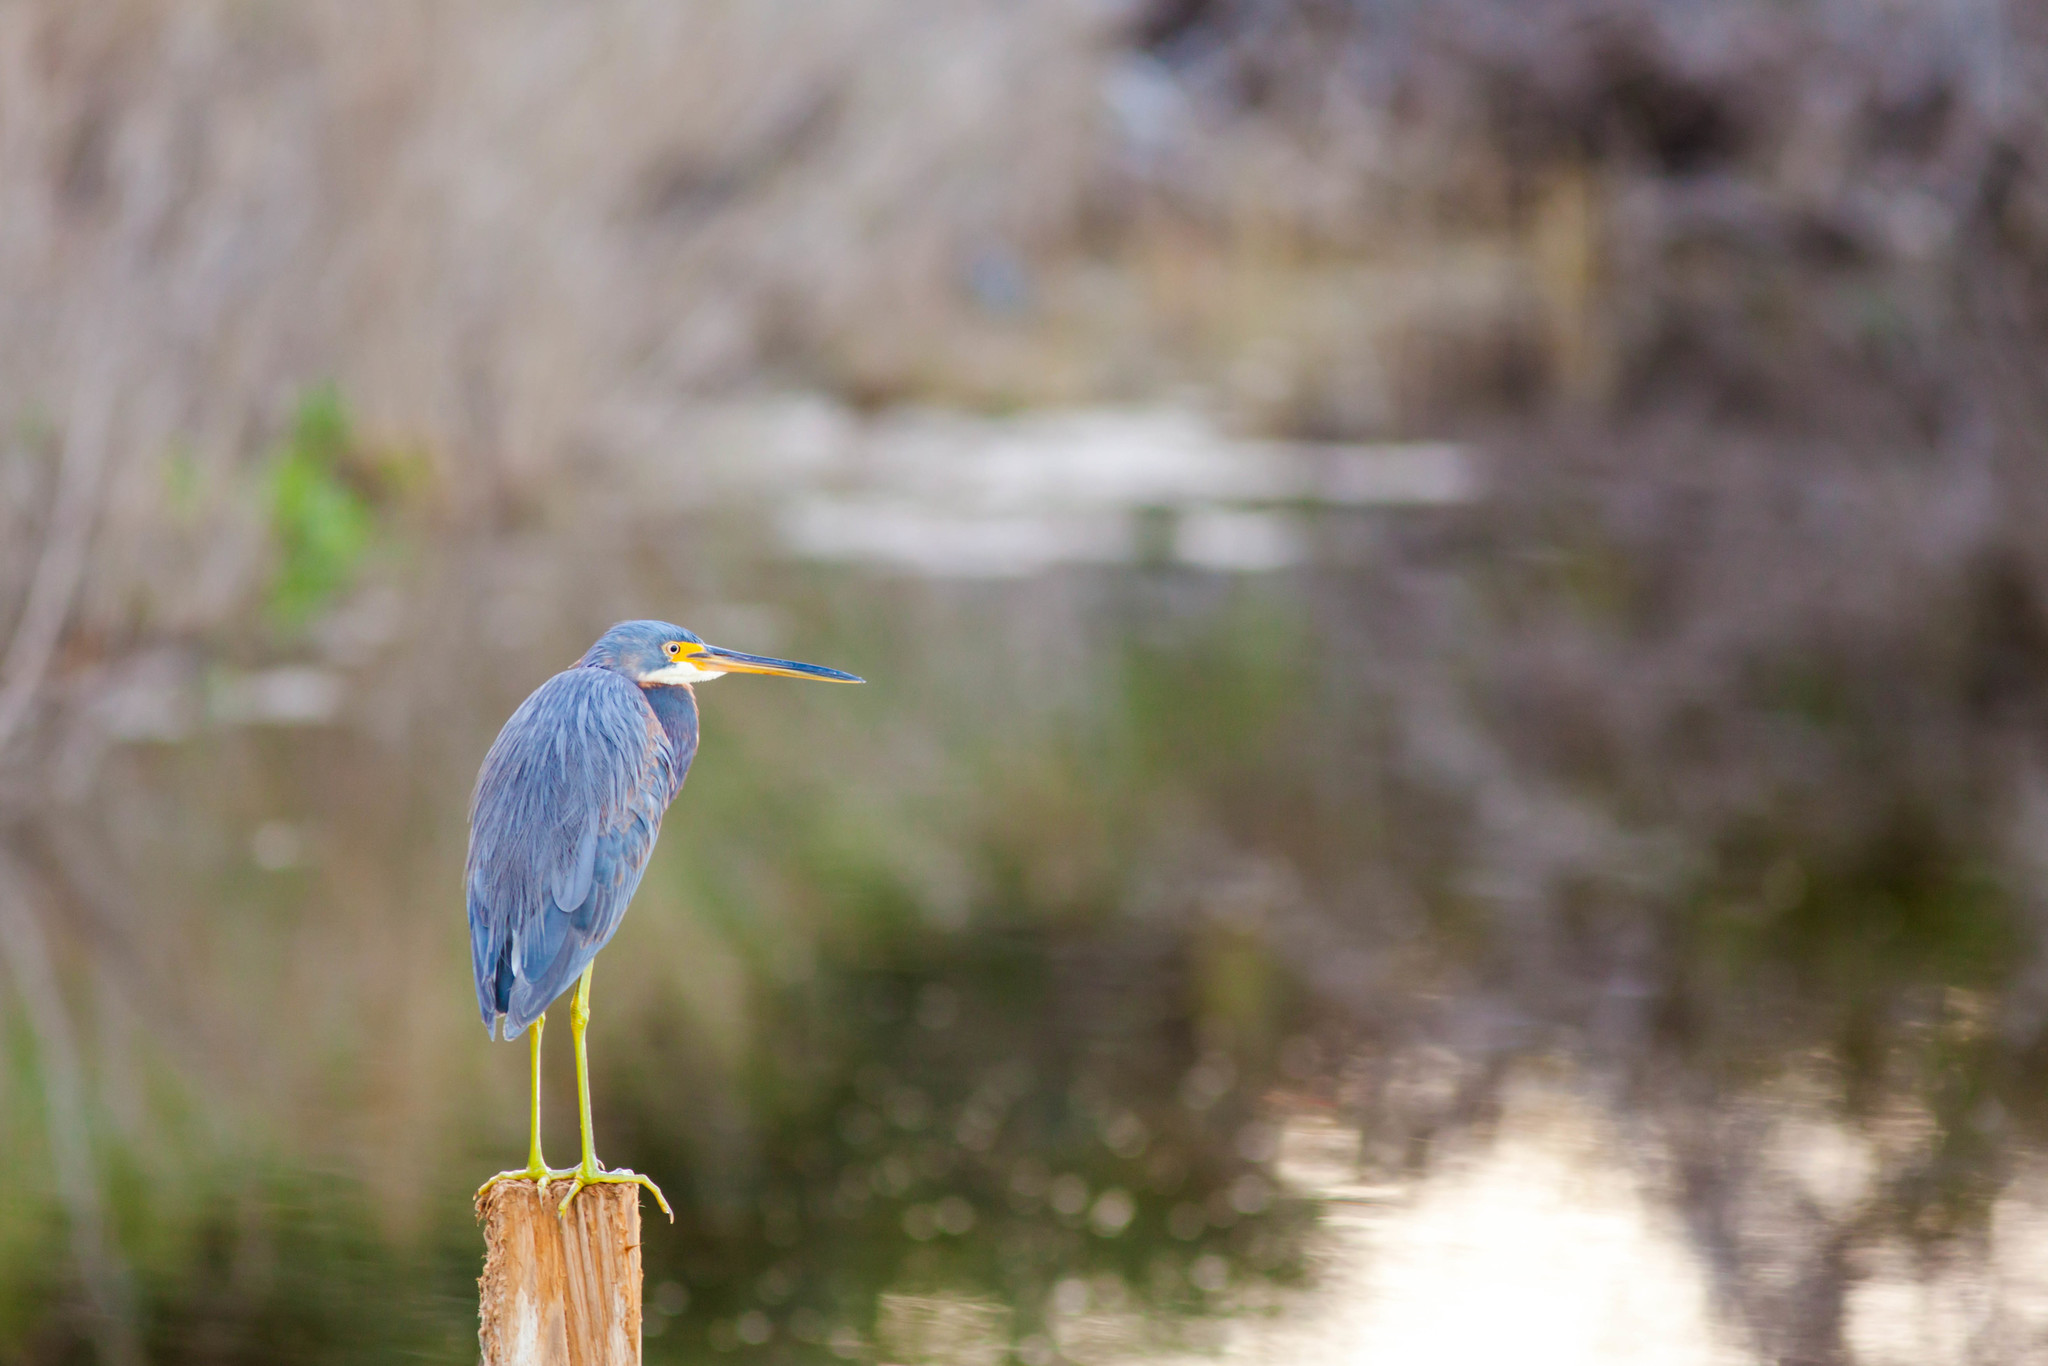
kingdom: Animalia
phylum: Chordata
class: Aves
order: Pelecaniformes
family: Ardeidae
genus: Egretta
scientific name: Egretta tricolor
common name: Tricolored heron
